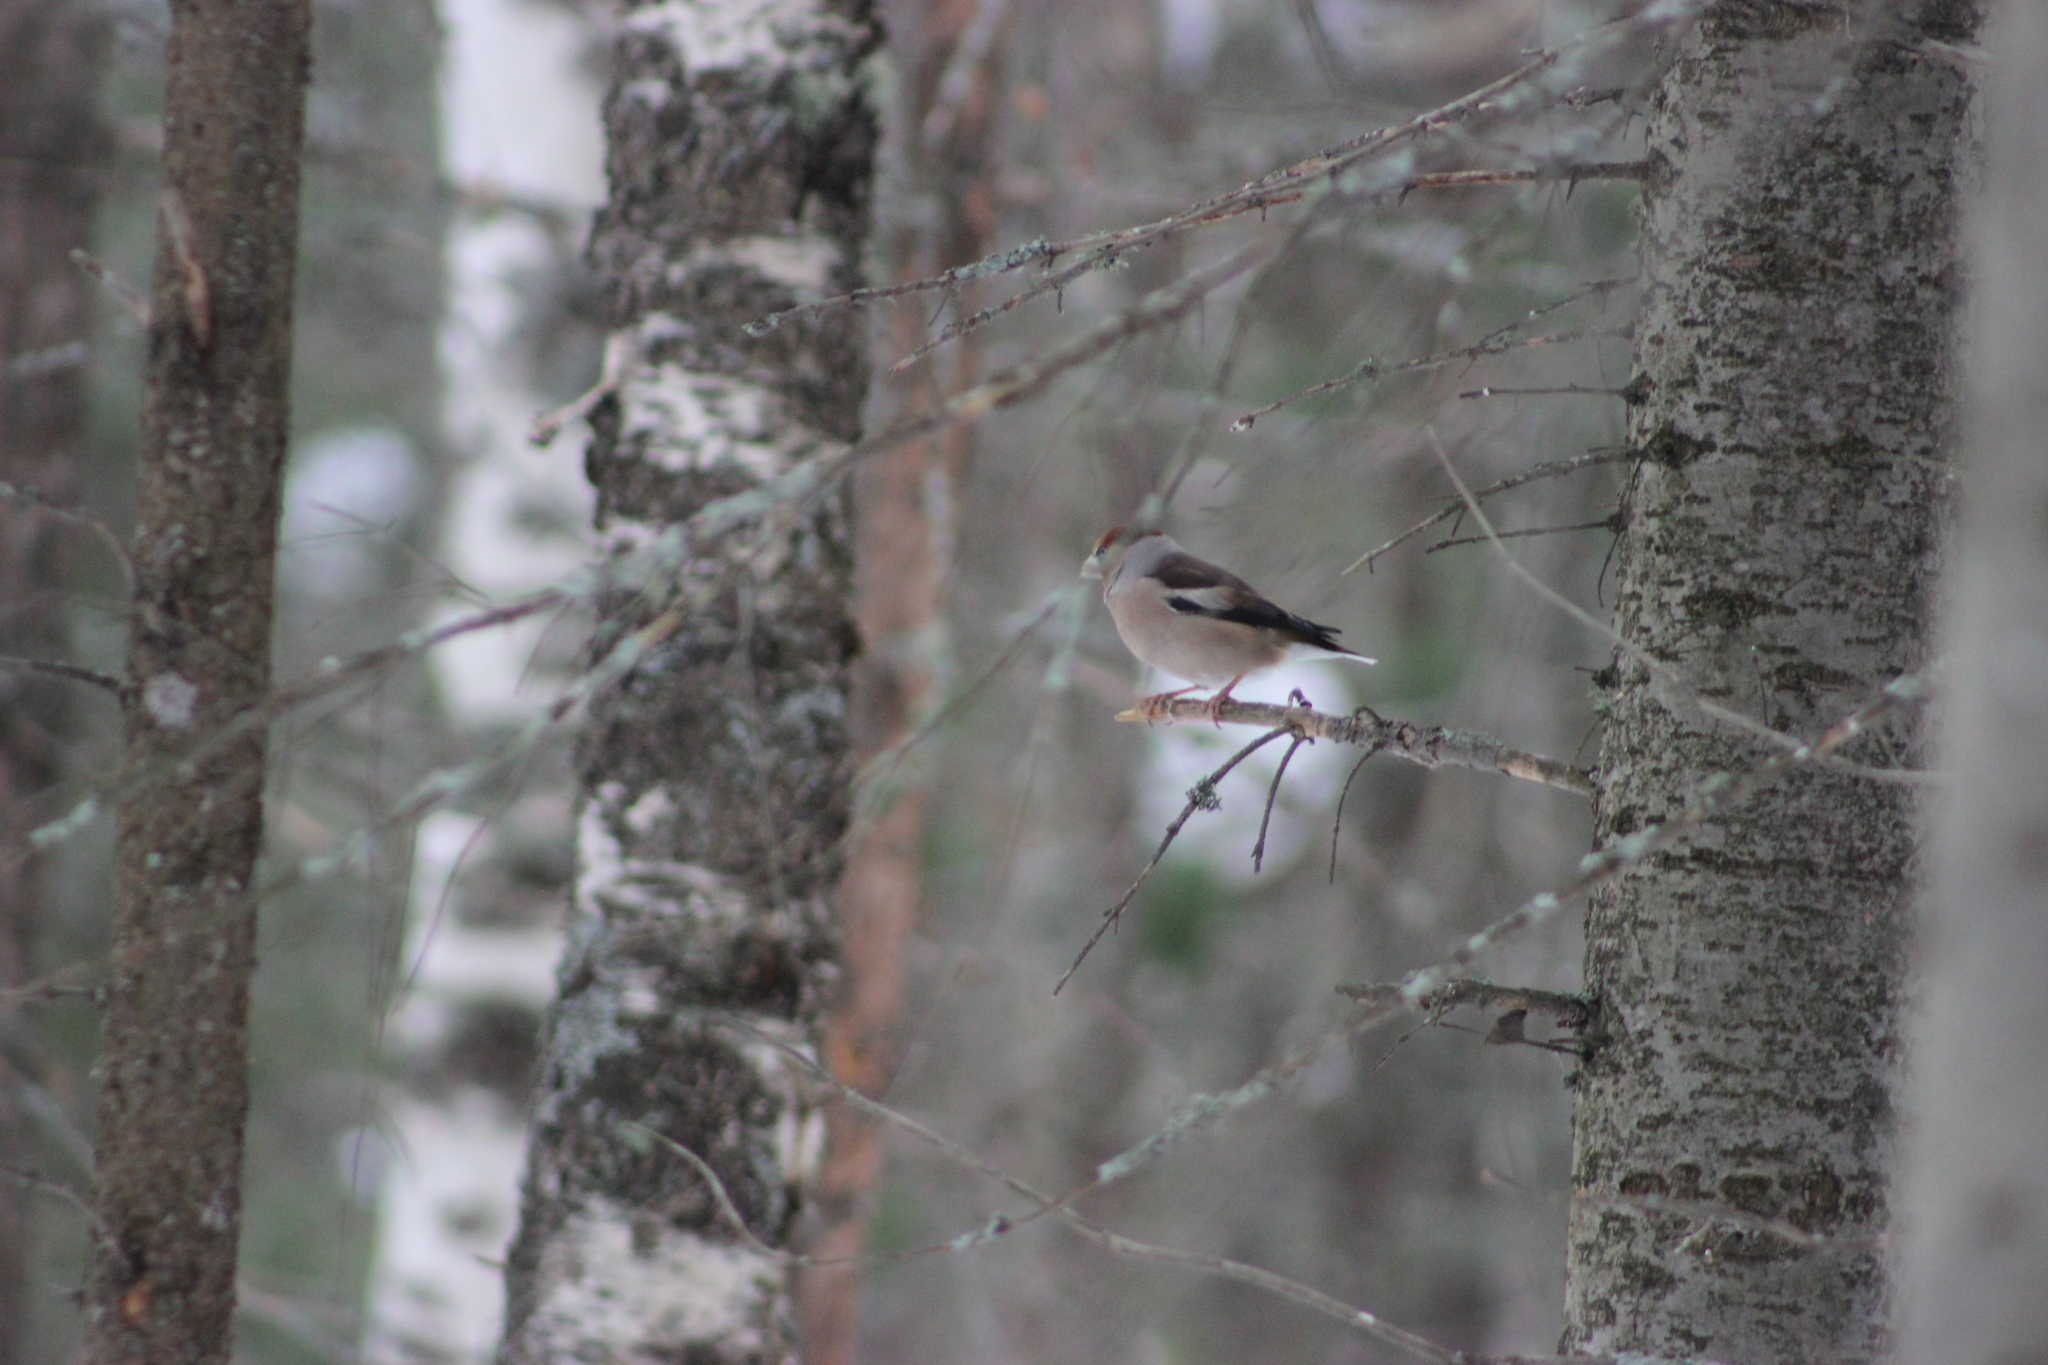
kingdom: Animalia
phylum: Chordata
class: Aves
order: Passeriformes
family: Fringillidae
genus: Coccothraustes
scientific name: Coccothraustes coccothraustes
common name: Hawfinch
